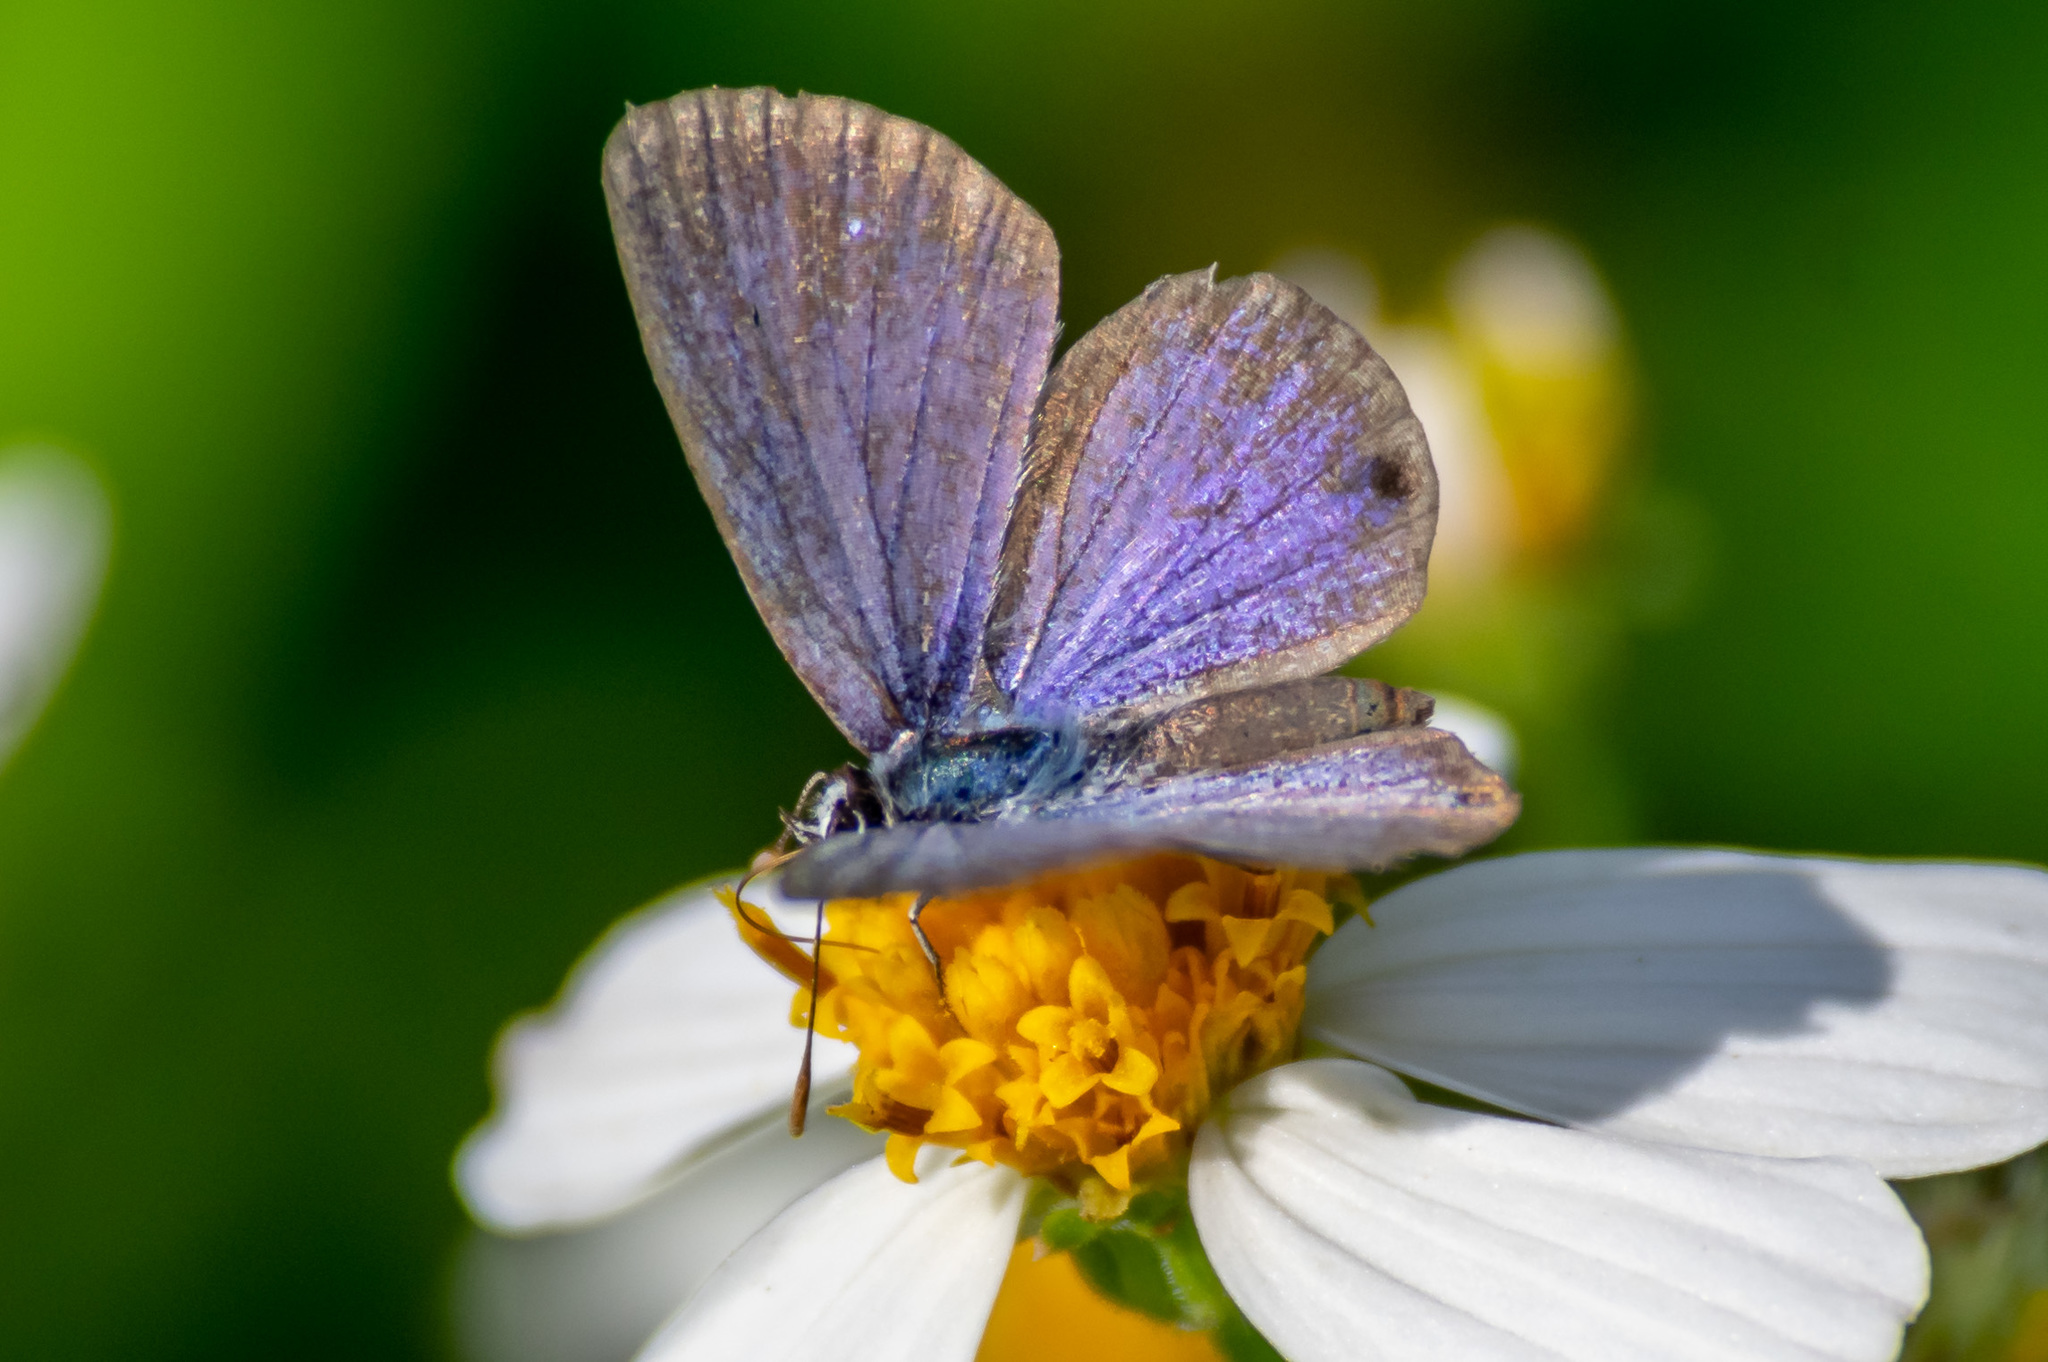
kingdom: Animalia
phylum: Arthropoda
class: Insecta
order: Lepidoptera
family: Lycaenidae
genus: Hemiargus
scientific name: Hemiargus ceraunus
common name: Ceraunus blue
